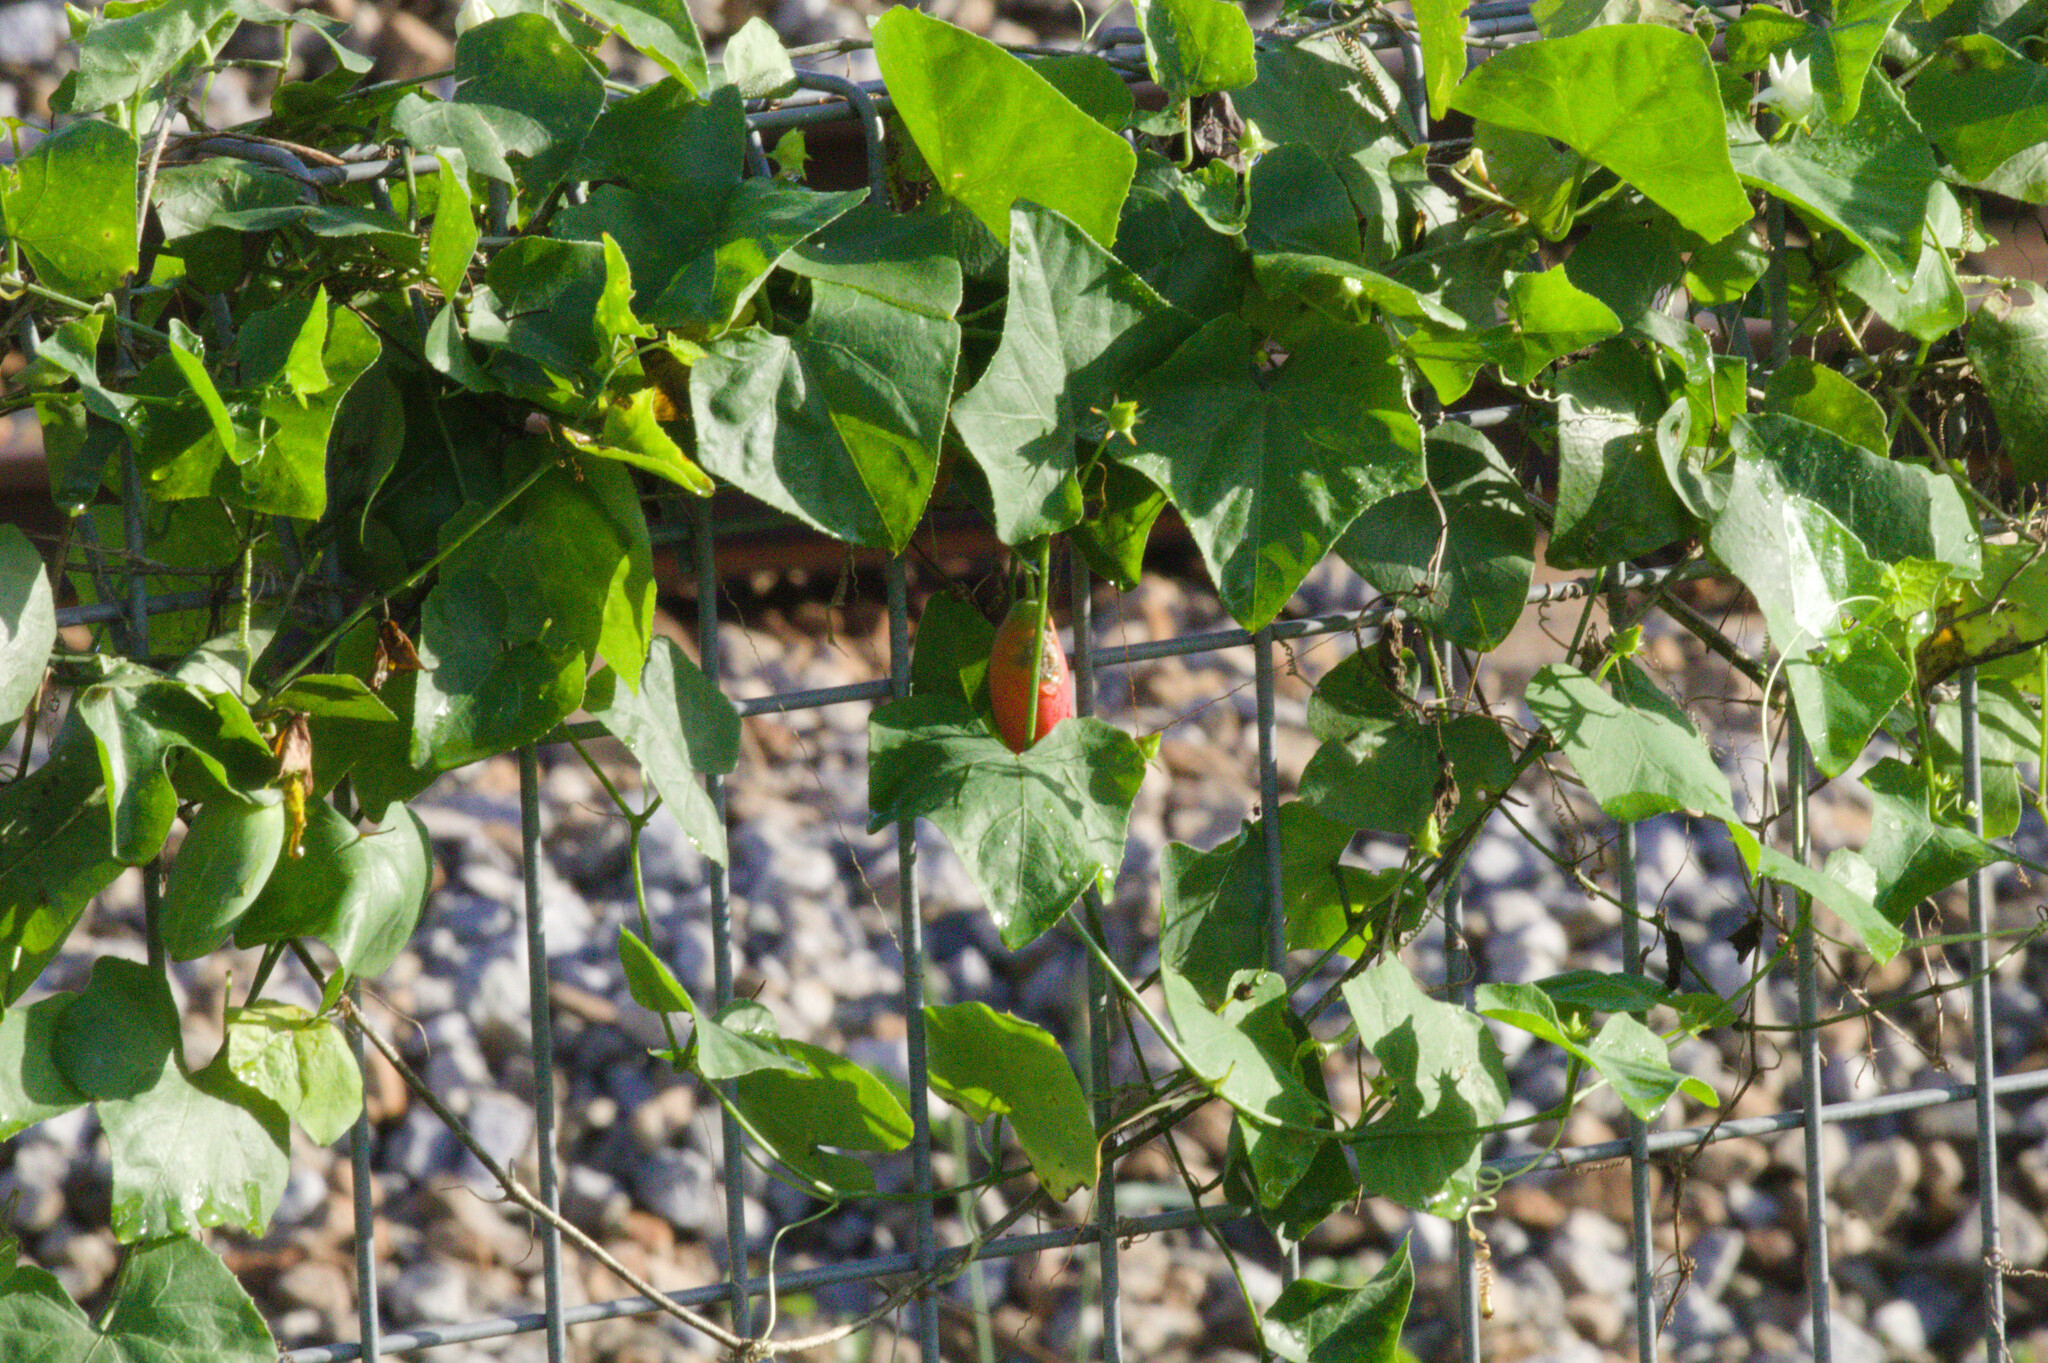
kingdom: Plantae
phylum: Tracheophyta
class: Magnoliopsida
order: Cucurbitales
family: Cucurbitaceae
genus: Coccinia
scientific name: Coccinia grandis
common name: Ivy gourd
